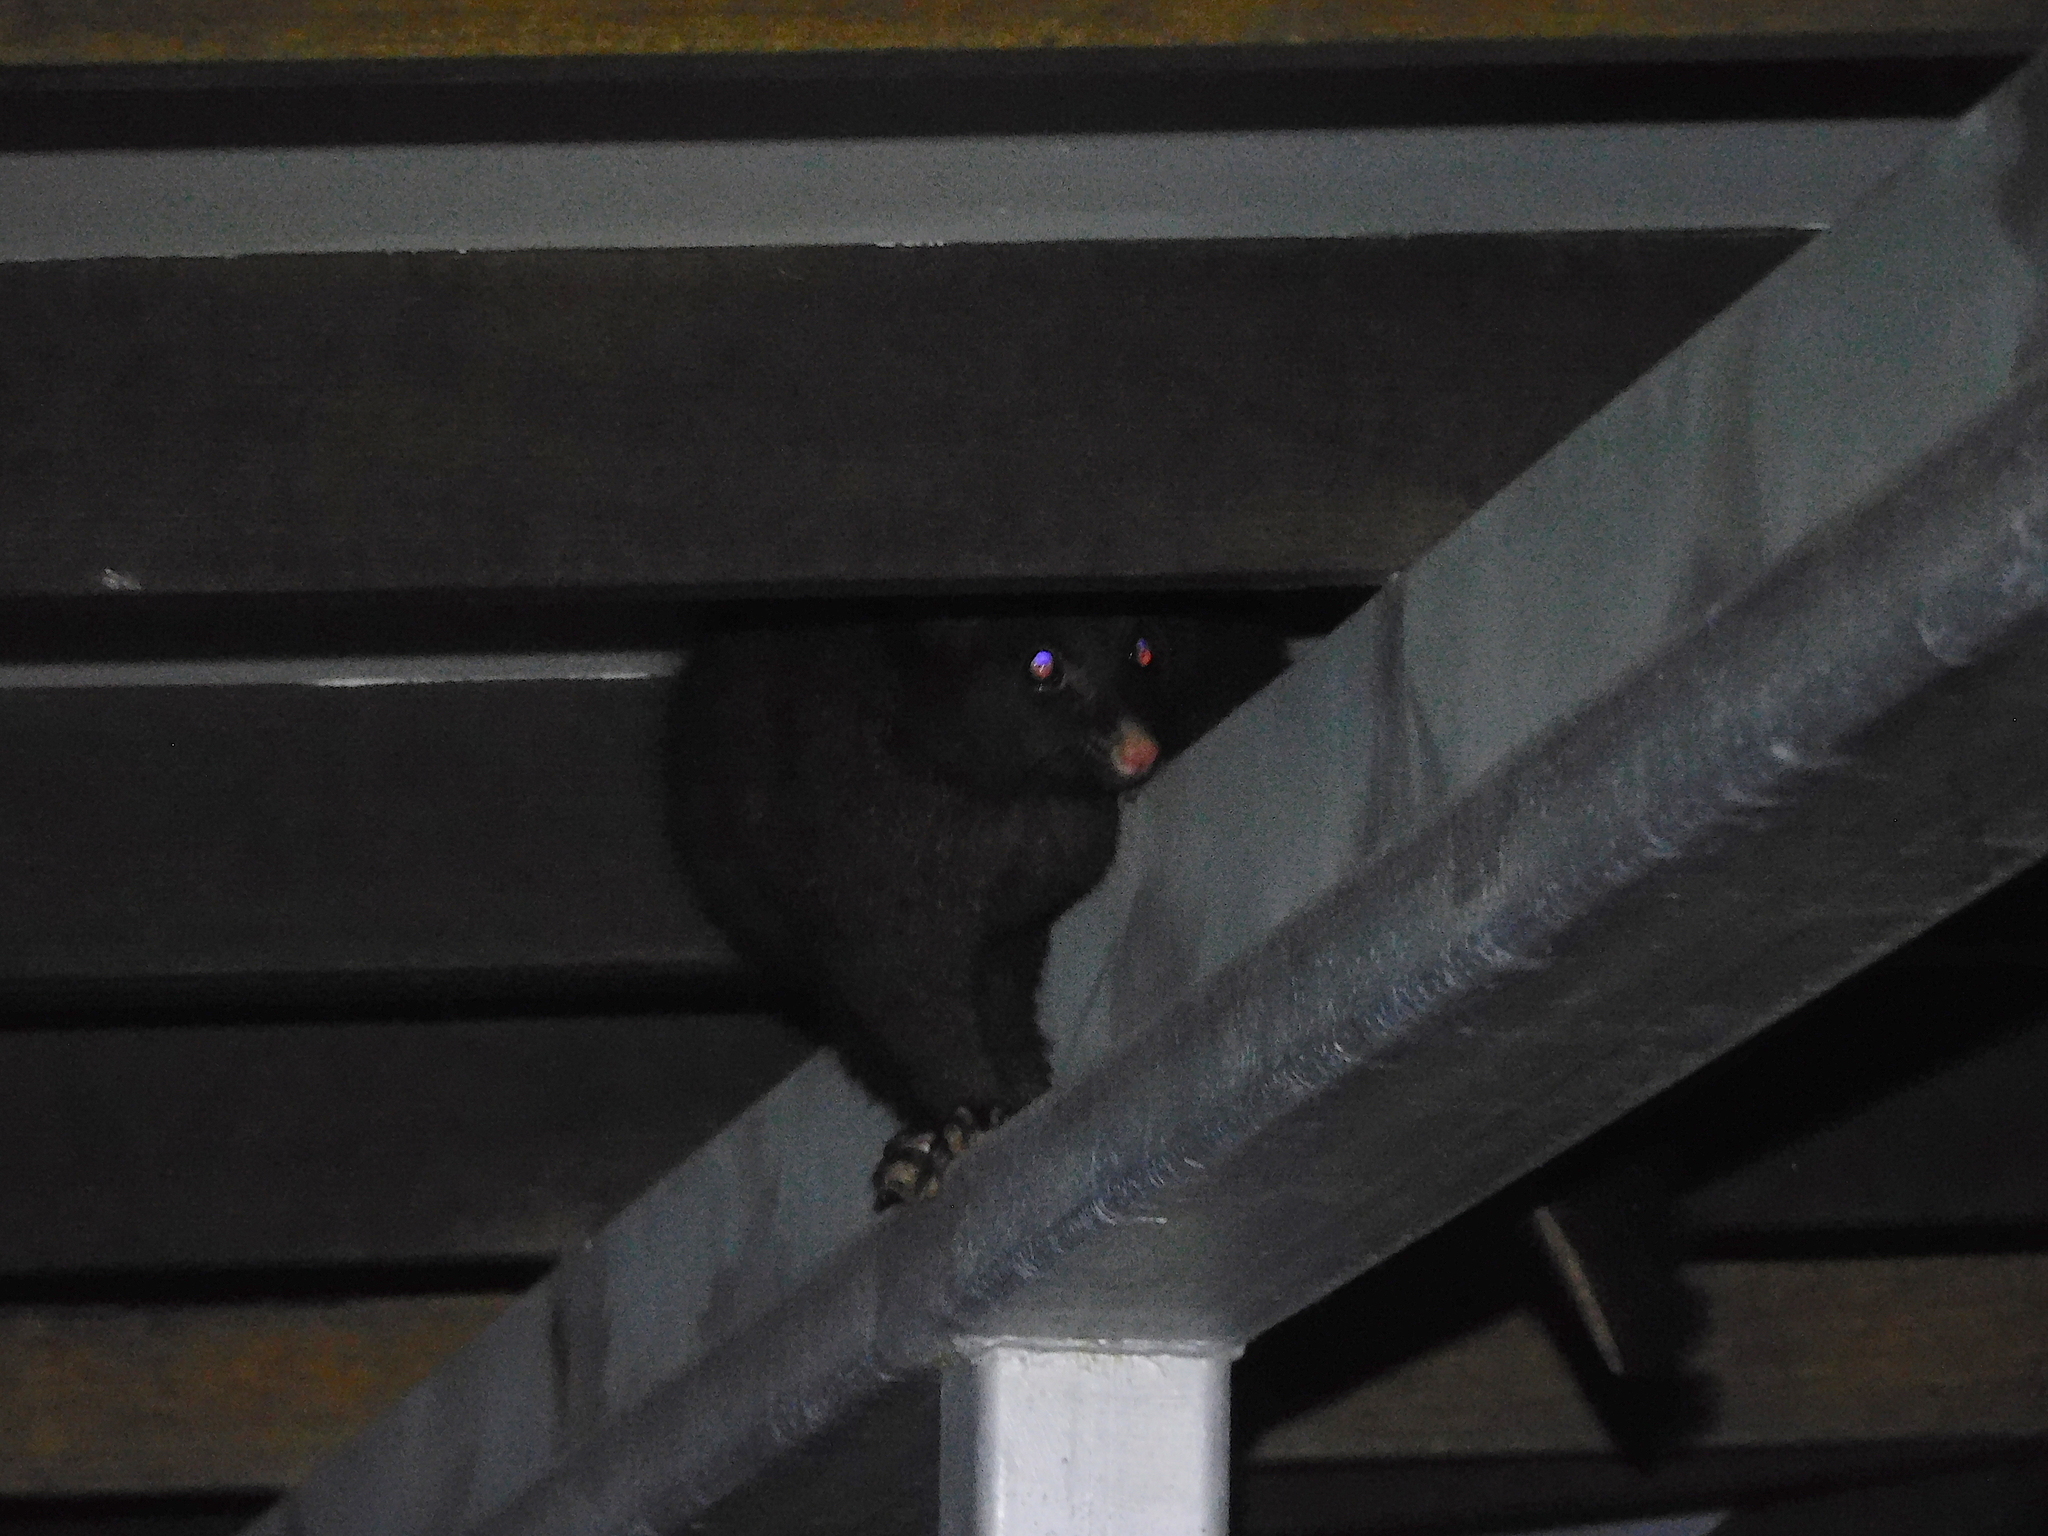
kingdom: Animalia
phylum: Chordata
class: Mammalia
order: Diprotodontia
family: Phalangeridae
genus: Trichosurus
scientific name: Trichosurus vulpecula
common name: Common brushtail
